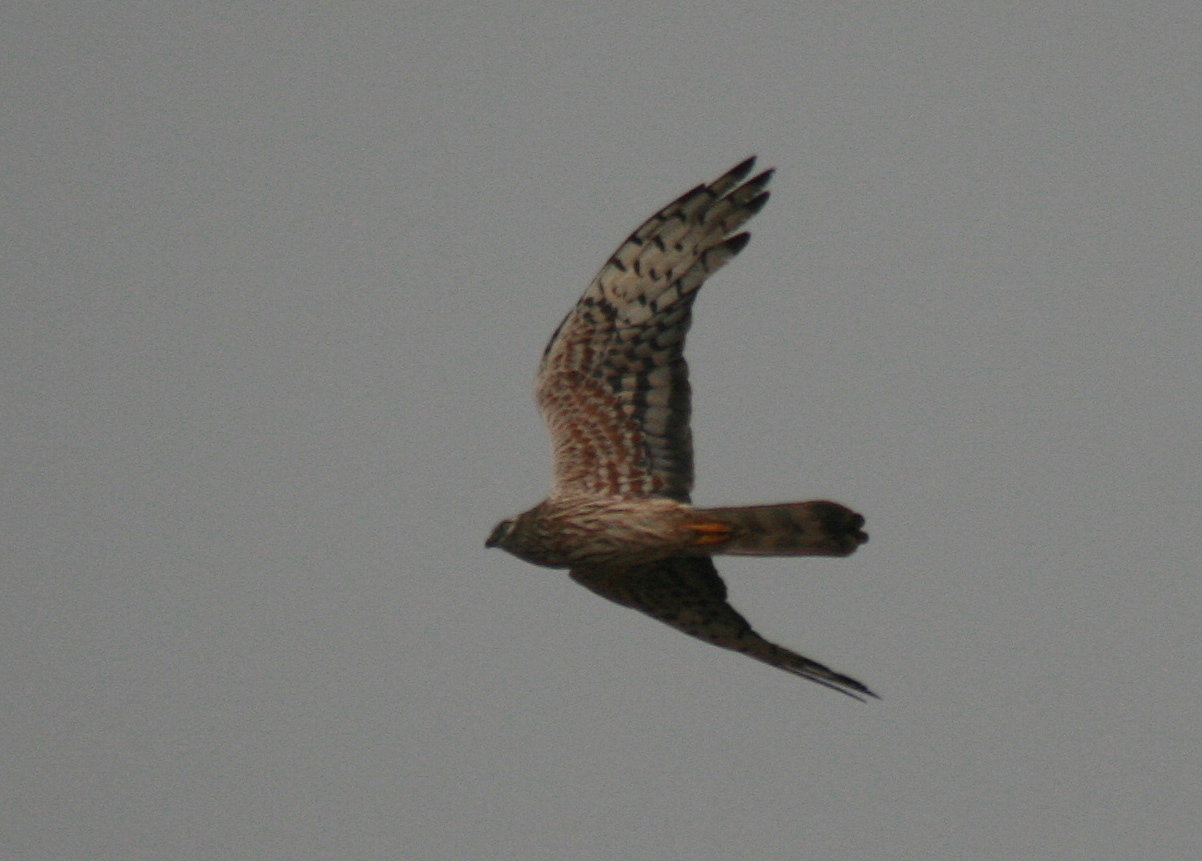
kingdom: Animalia
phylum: Chordata
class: Aves
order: Accipitriformes
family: Accipitridae
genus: Circus
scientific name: Circus pygargus
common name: Montagu's harrier
